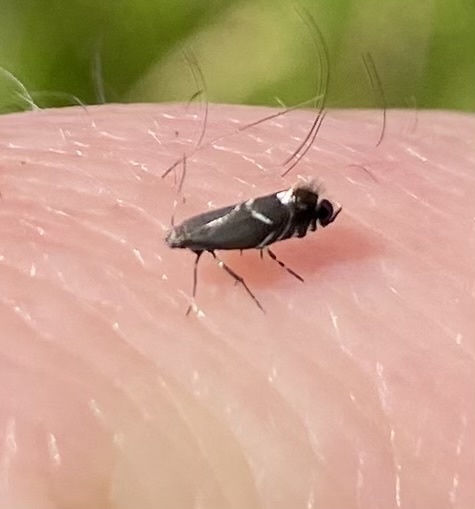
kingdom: Animalia
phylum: Arthropoda
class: Insecta
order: Lepidoptera
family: Glyphipterigidae
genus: Glyphipterix
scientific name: Glyphipterix simpliciella
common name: Cocksfoot moth
